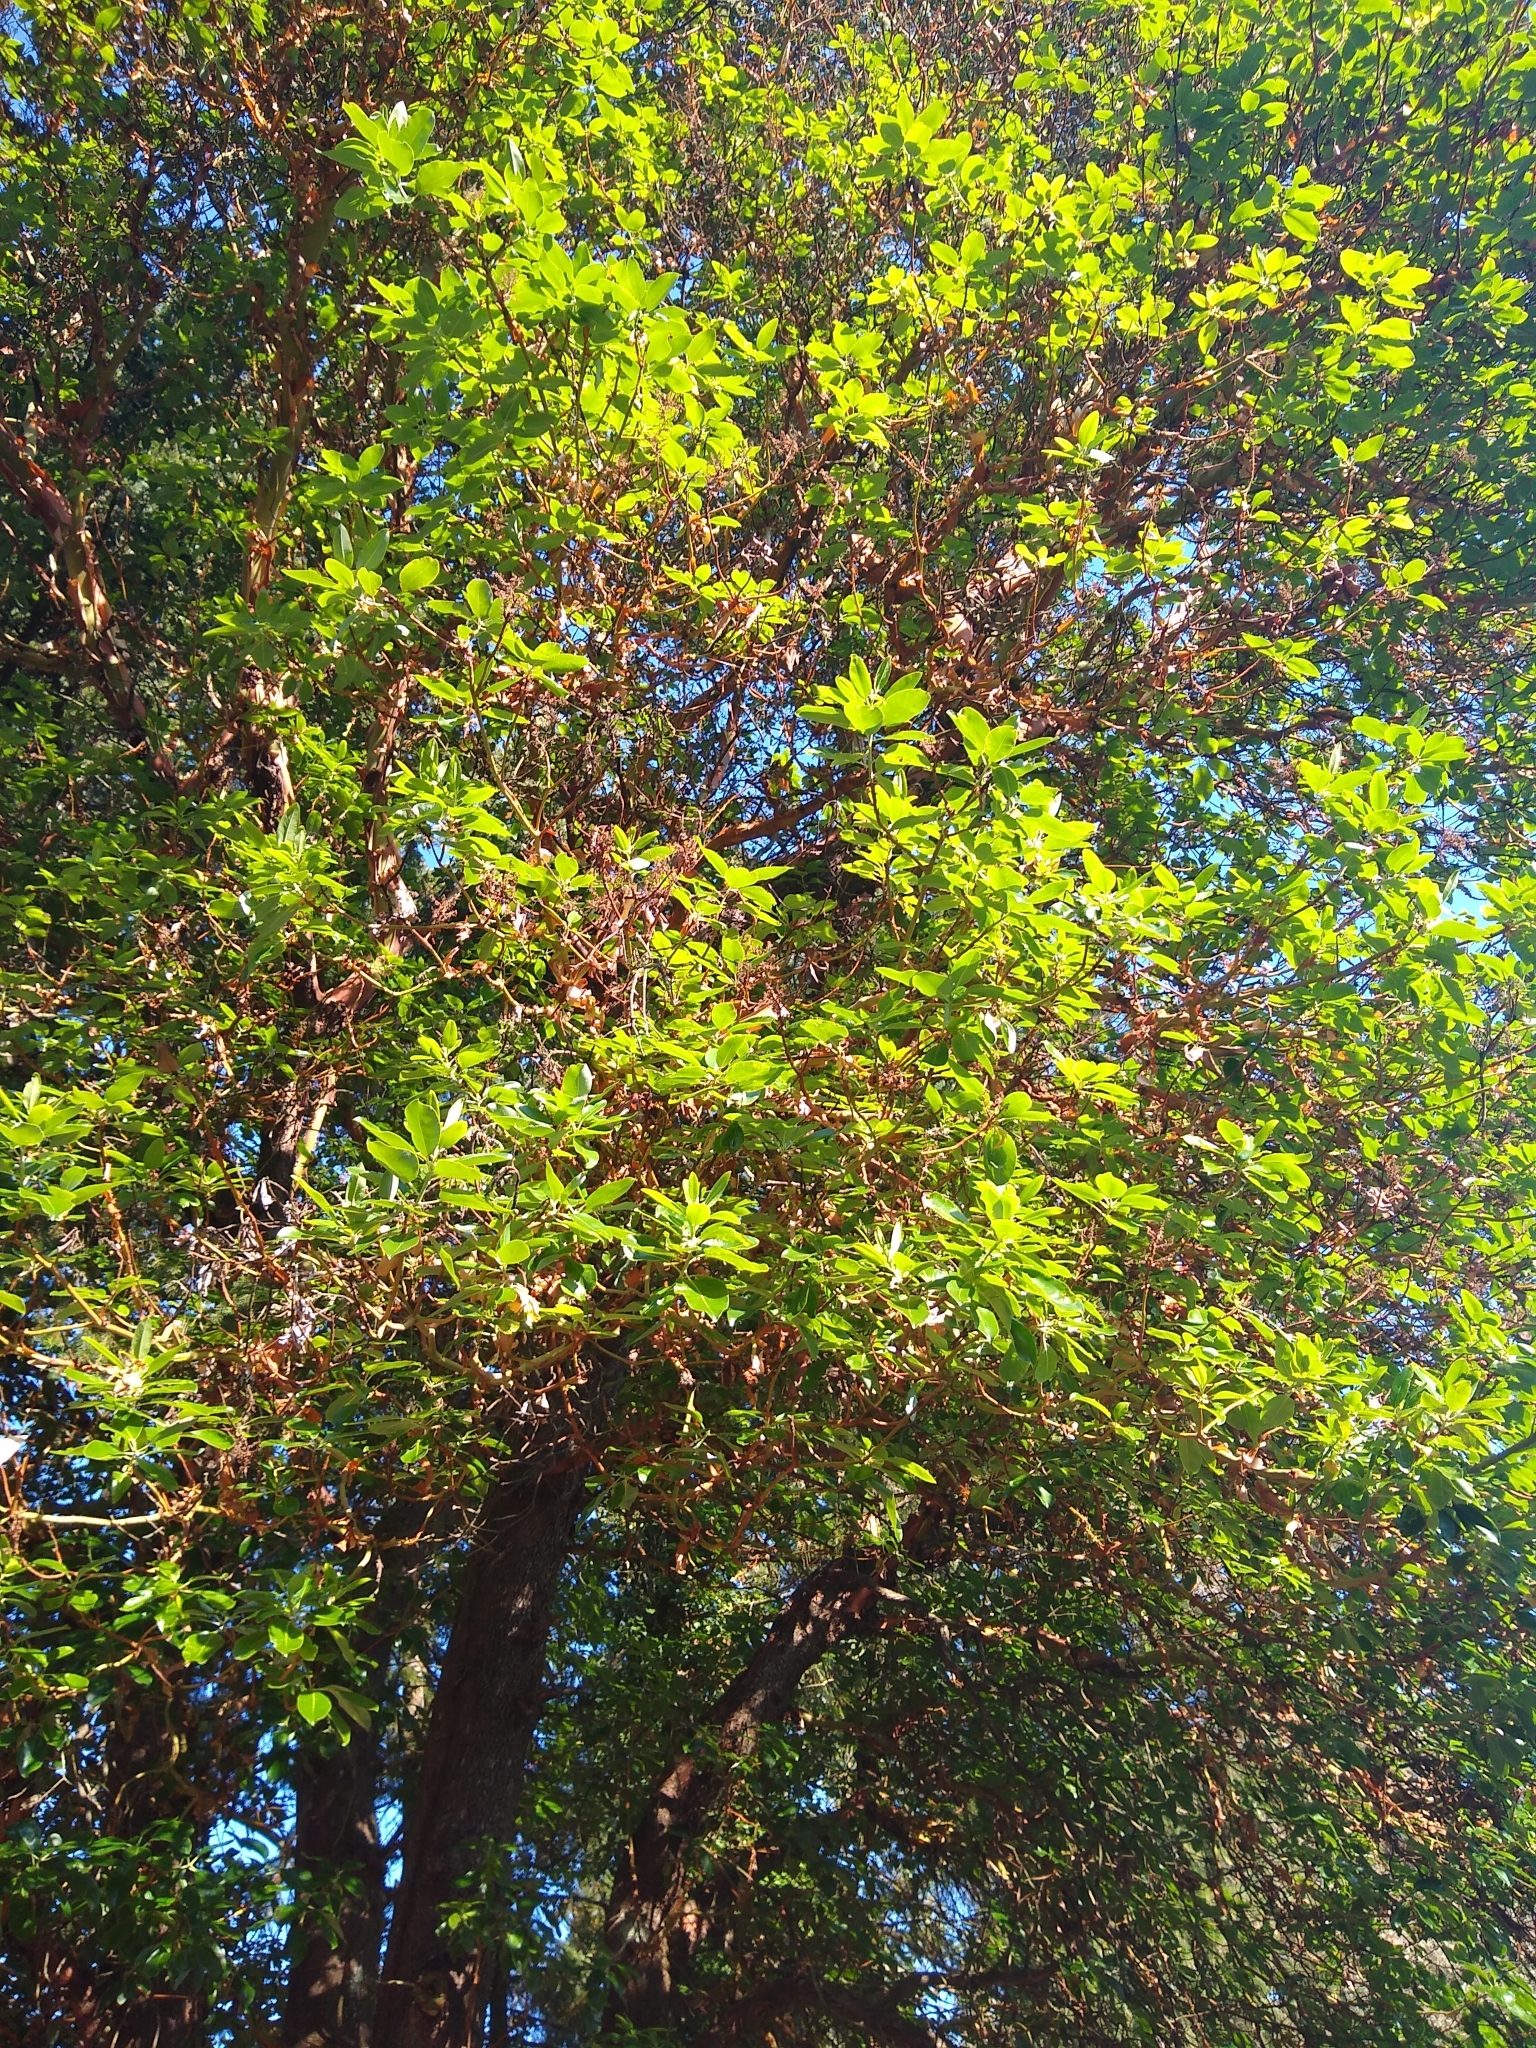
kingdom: Plantae
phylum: Tracheophyta
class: Magnoliopsida
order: Ericales
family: Ericaceae
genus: Arbutus
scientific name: Arbutus menziesii
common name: Pacific madrone
